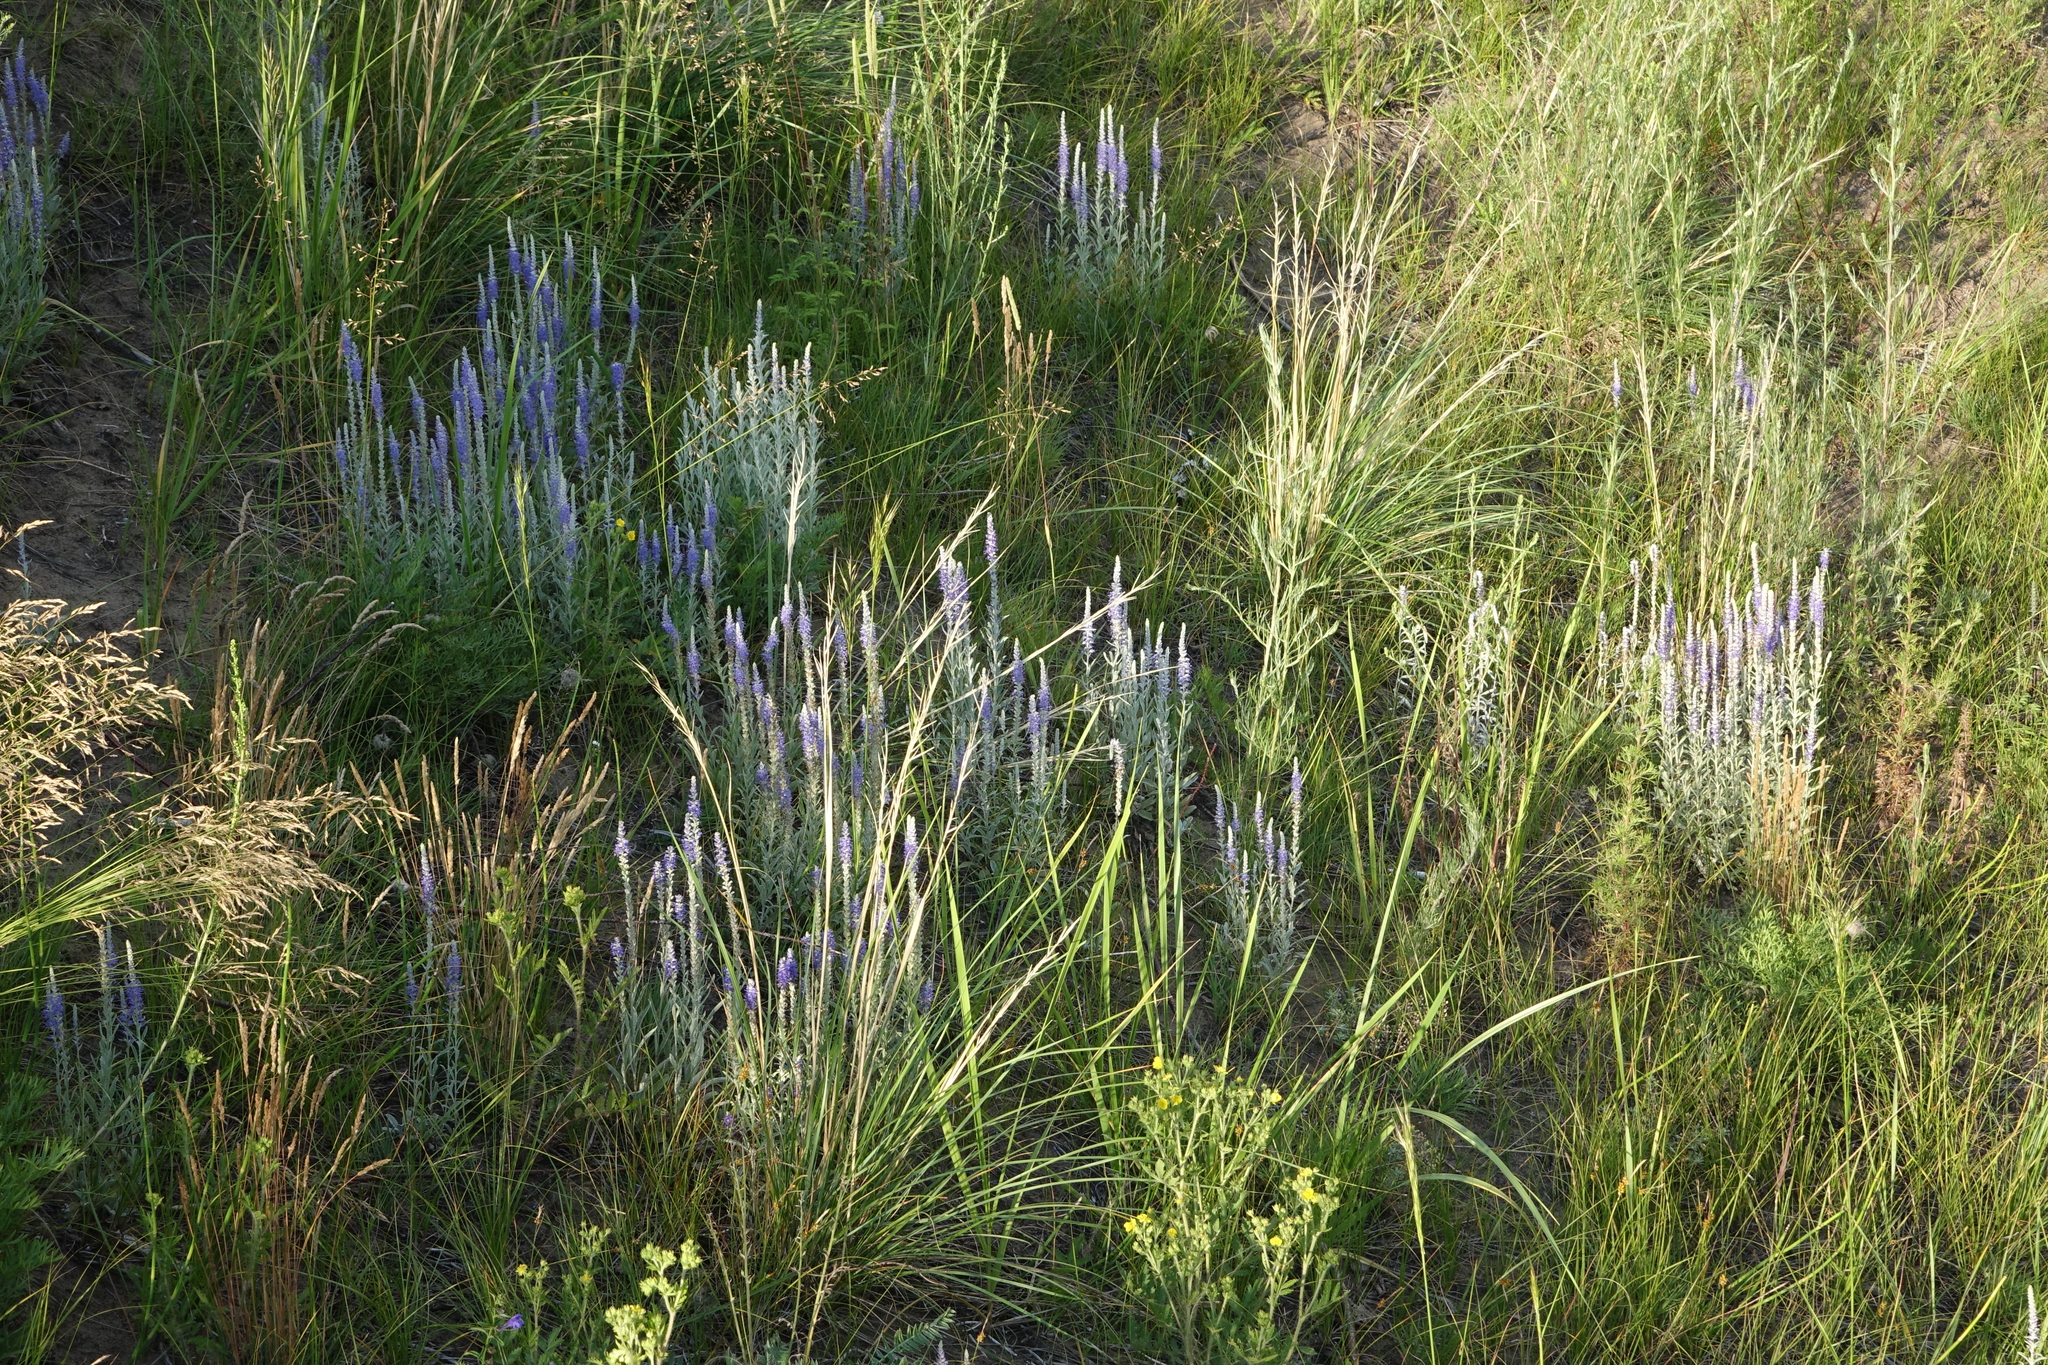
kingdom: Plantae
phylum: Tracheophyta
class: Magnoliopsida
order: Lamiales
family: Plantaginaceae
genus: Veronica
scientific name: Veronica incana
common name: Silver speedwell
